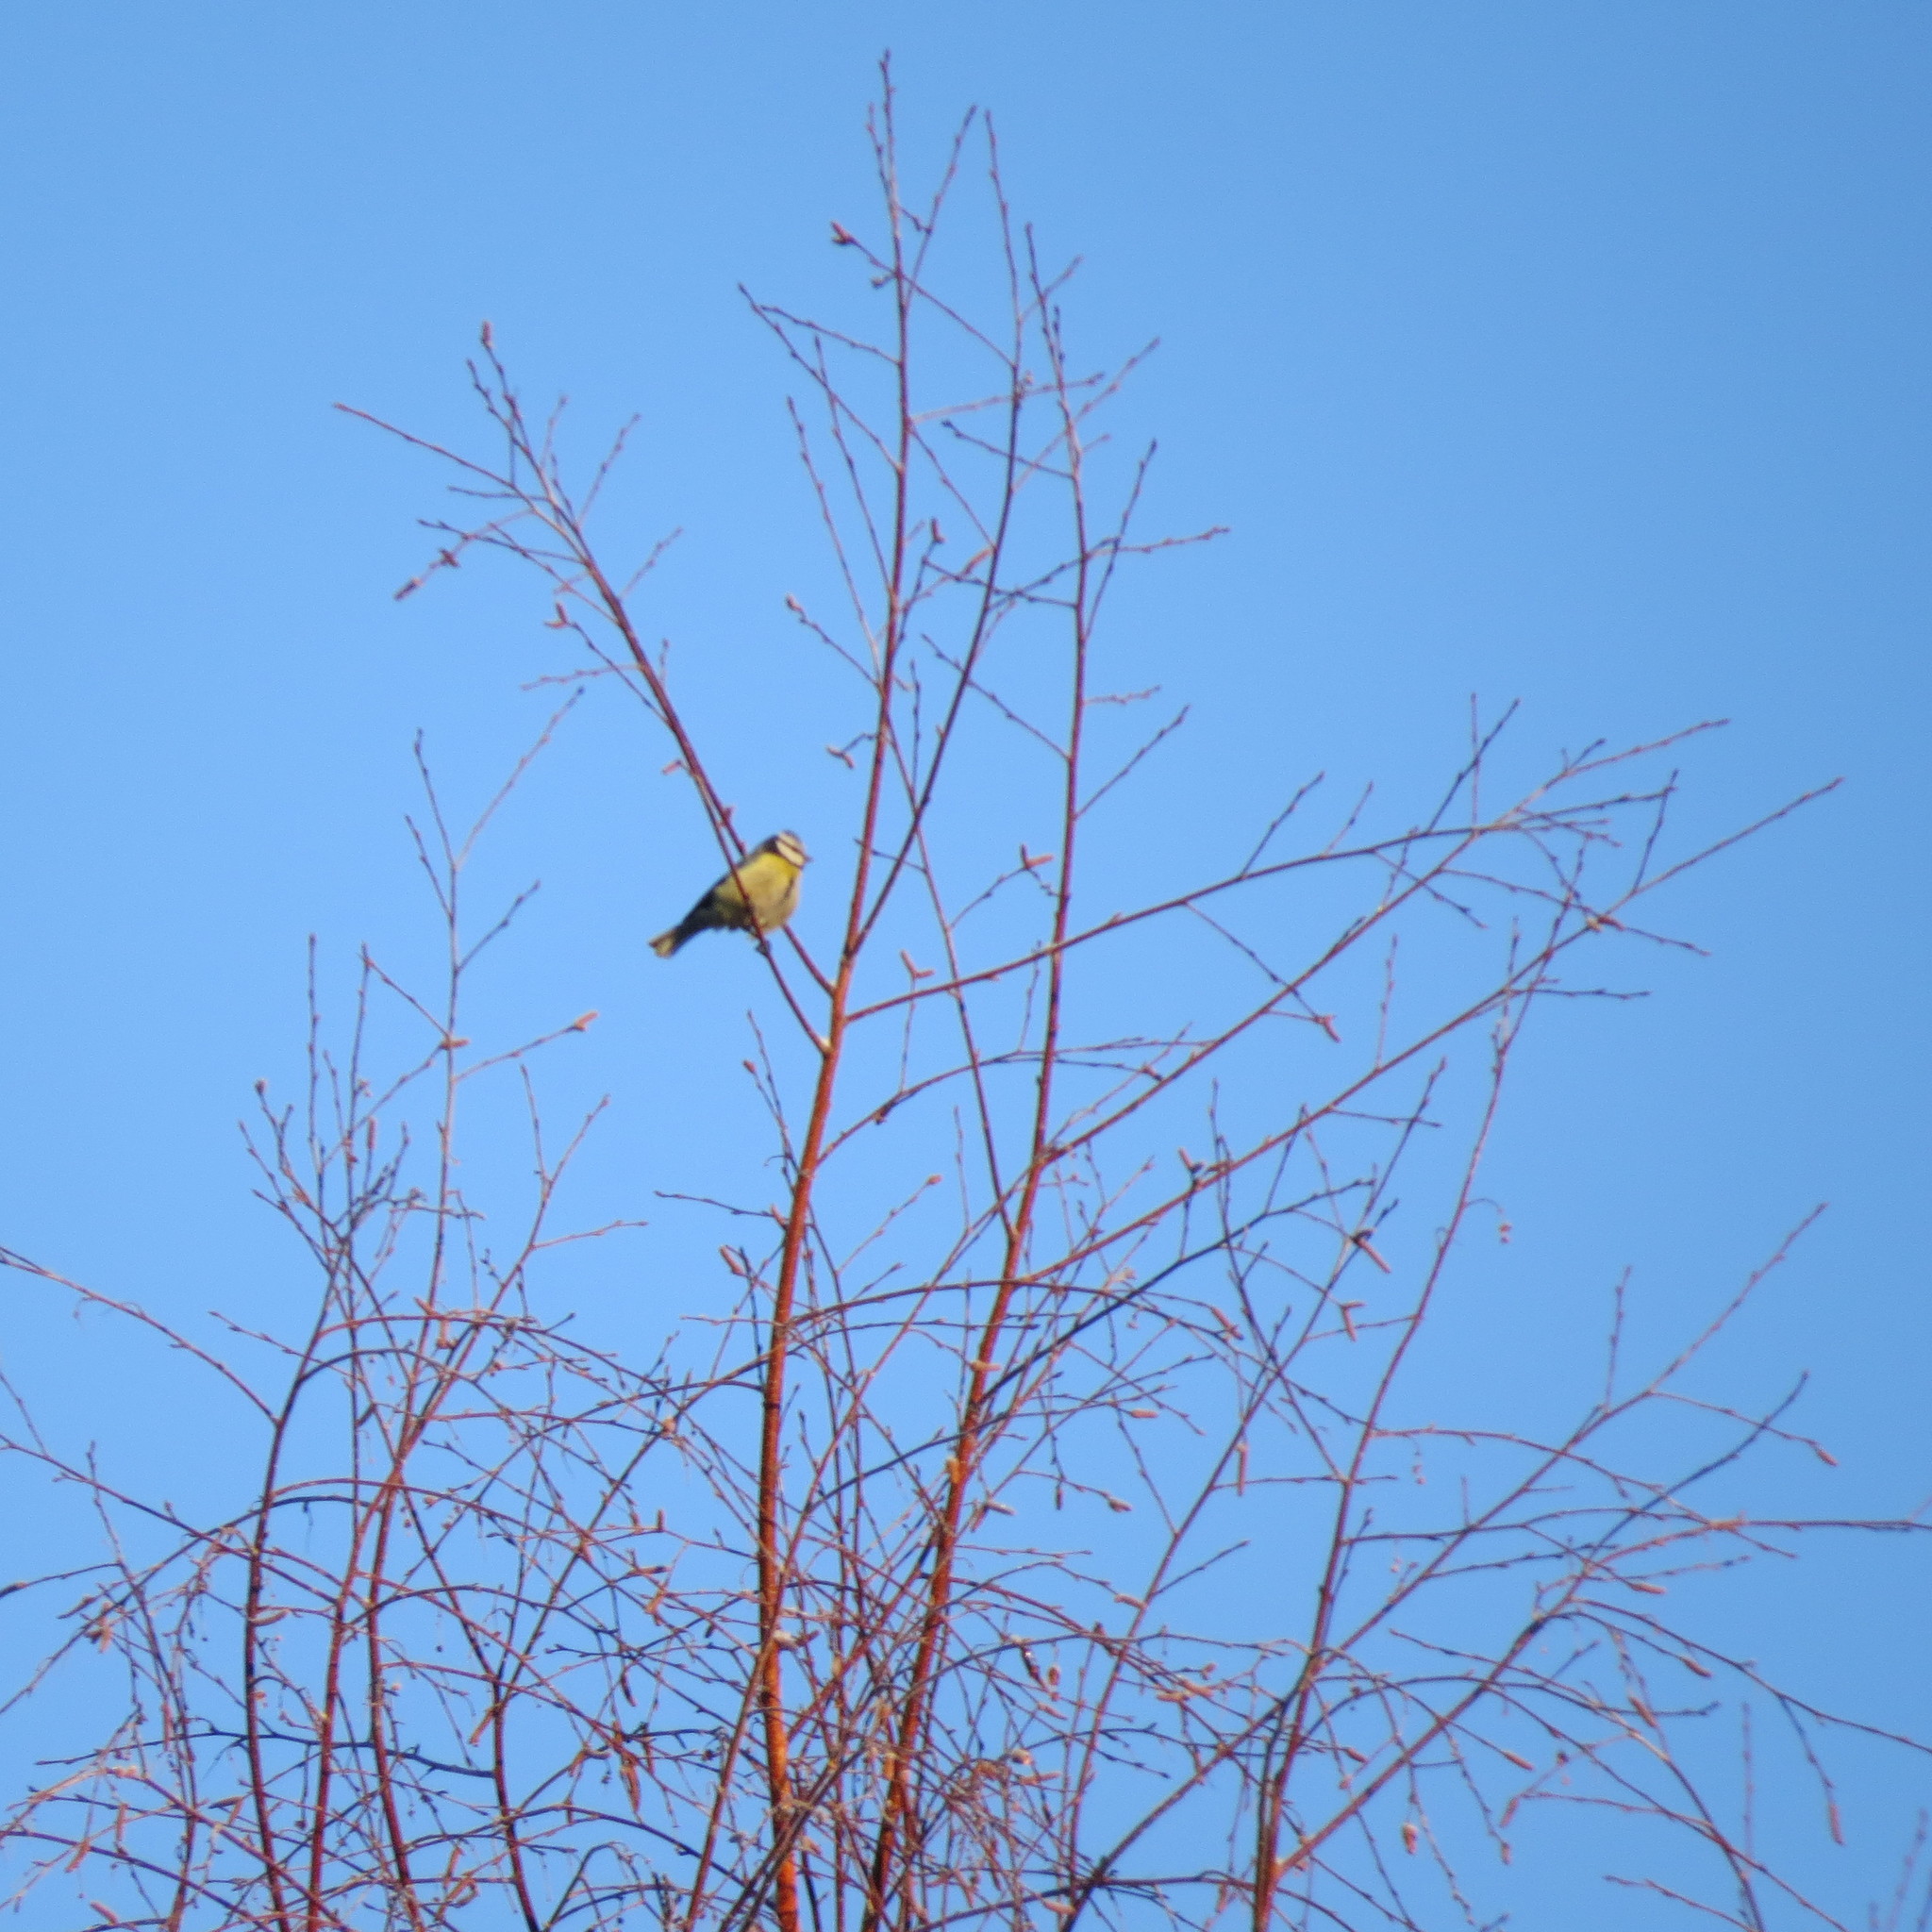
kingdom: Animalia
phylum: Chordata
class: Aves
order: Passeriformes
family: Paridae
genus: Cyanistes
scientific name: Cyanistes caeruleus
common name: Eurasian blue tit
